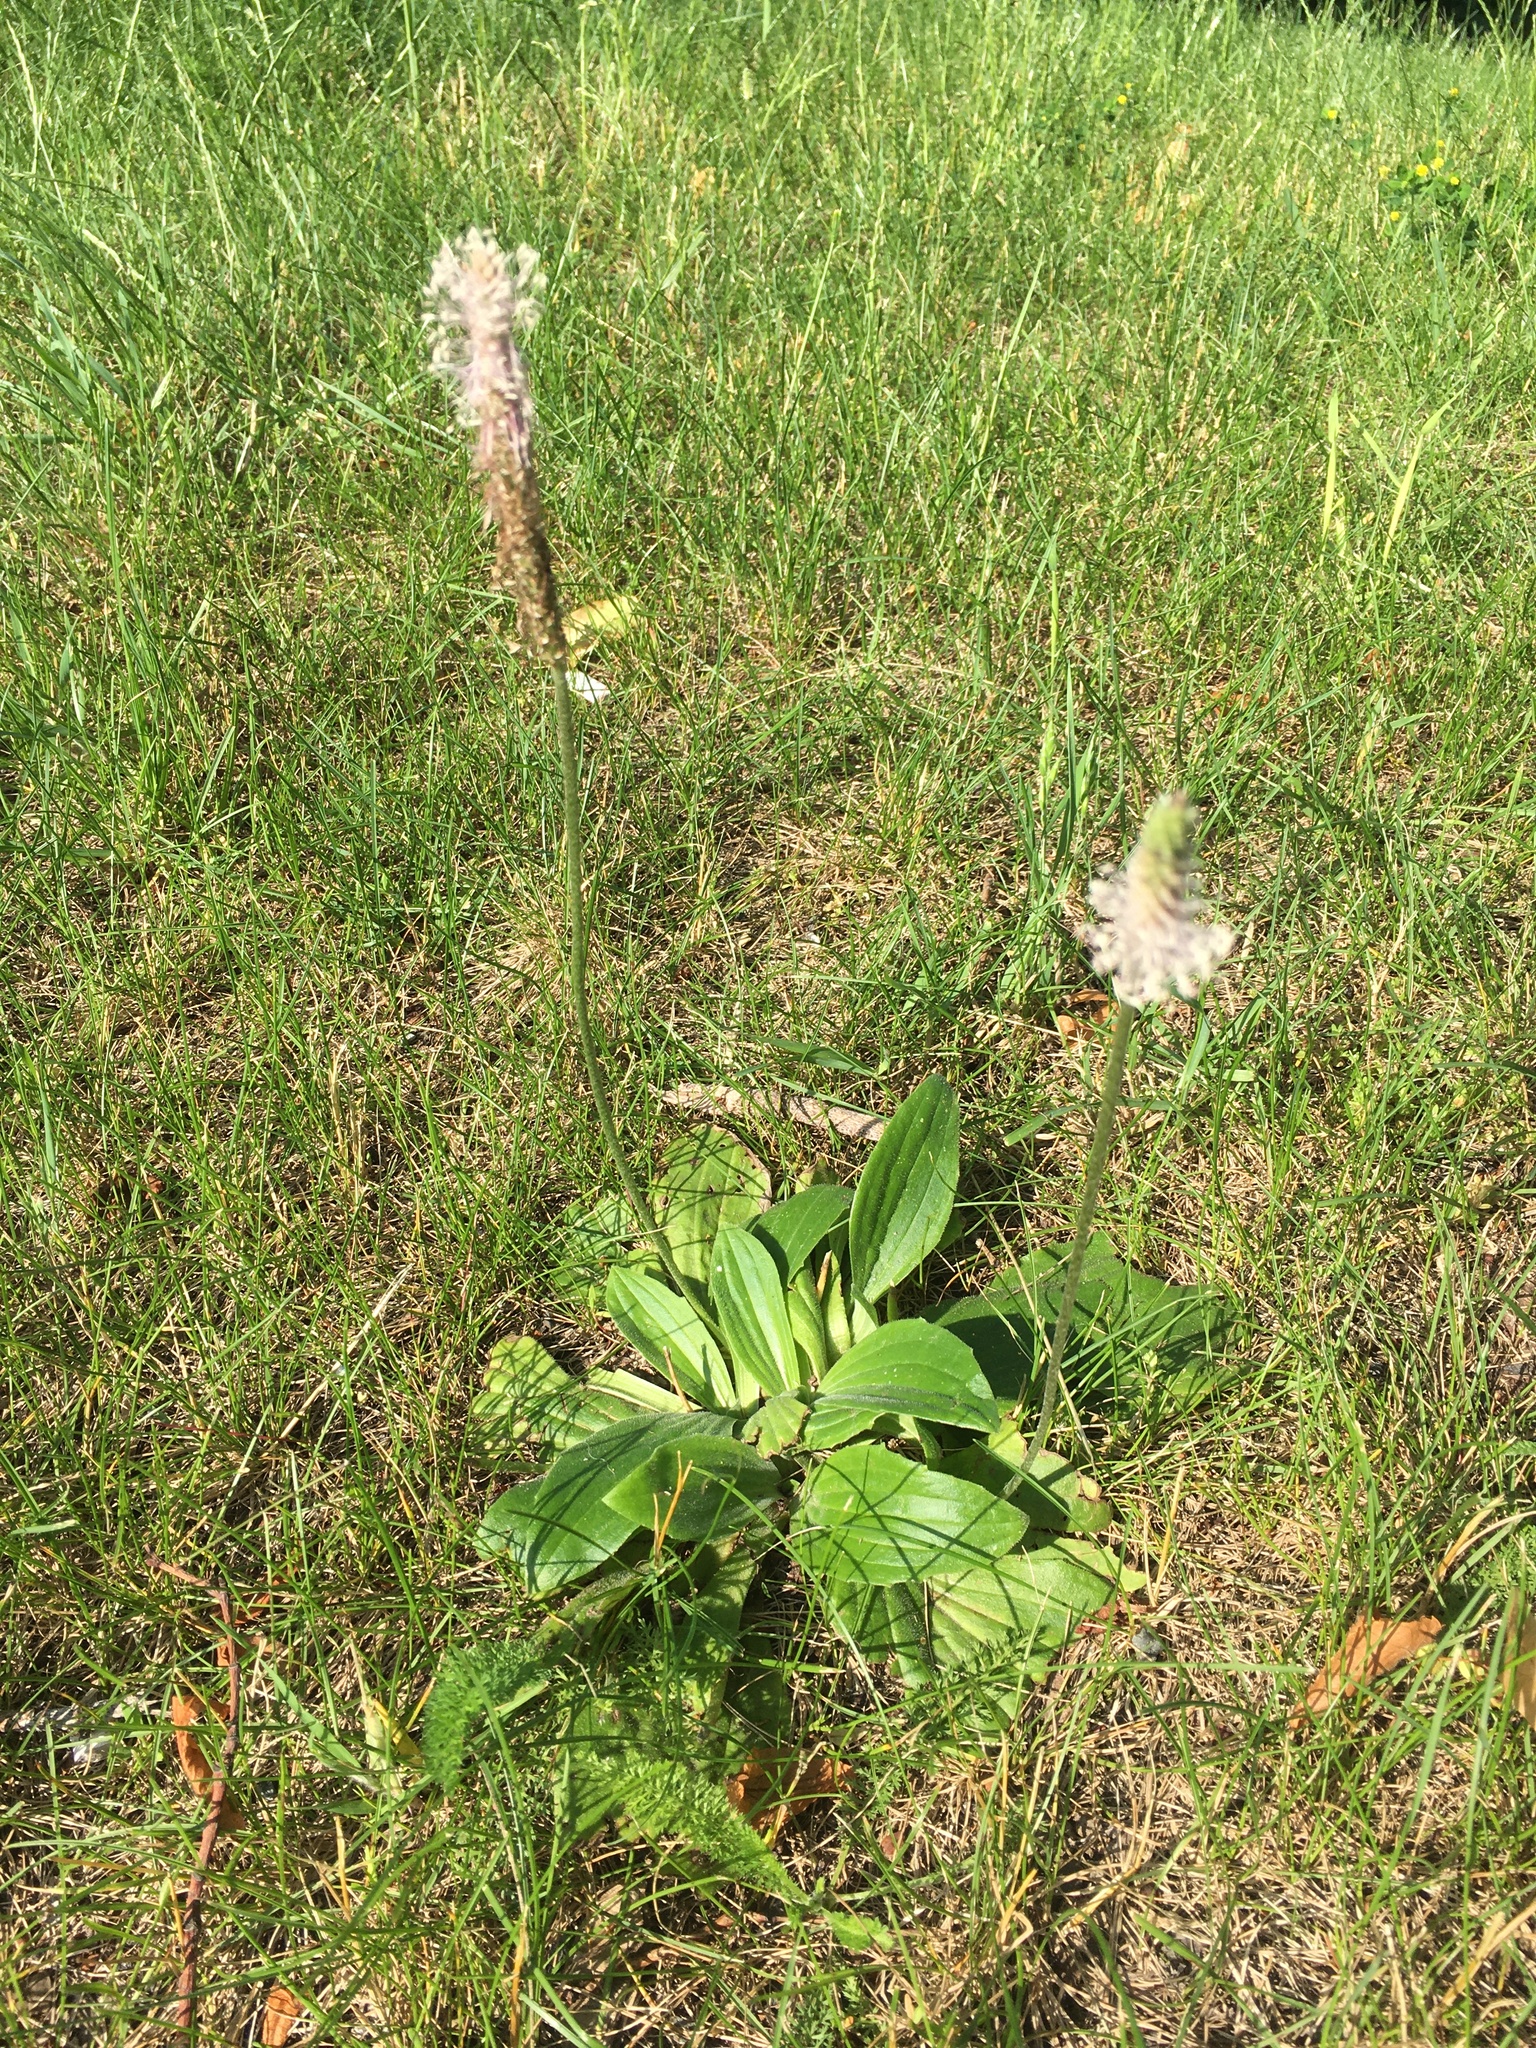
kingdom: Plantae
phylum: Tracheophyta
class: Magnoliopsida
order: Lamiales
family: Plantaginaceae
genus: Plantago
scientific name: Plantago media
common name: Hoary plantain
